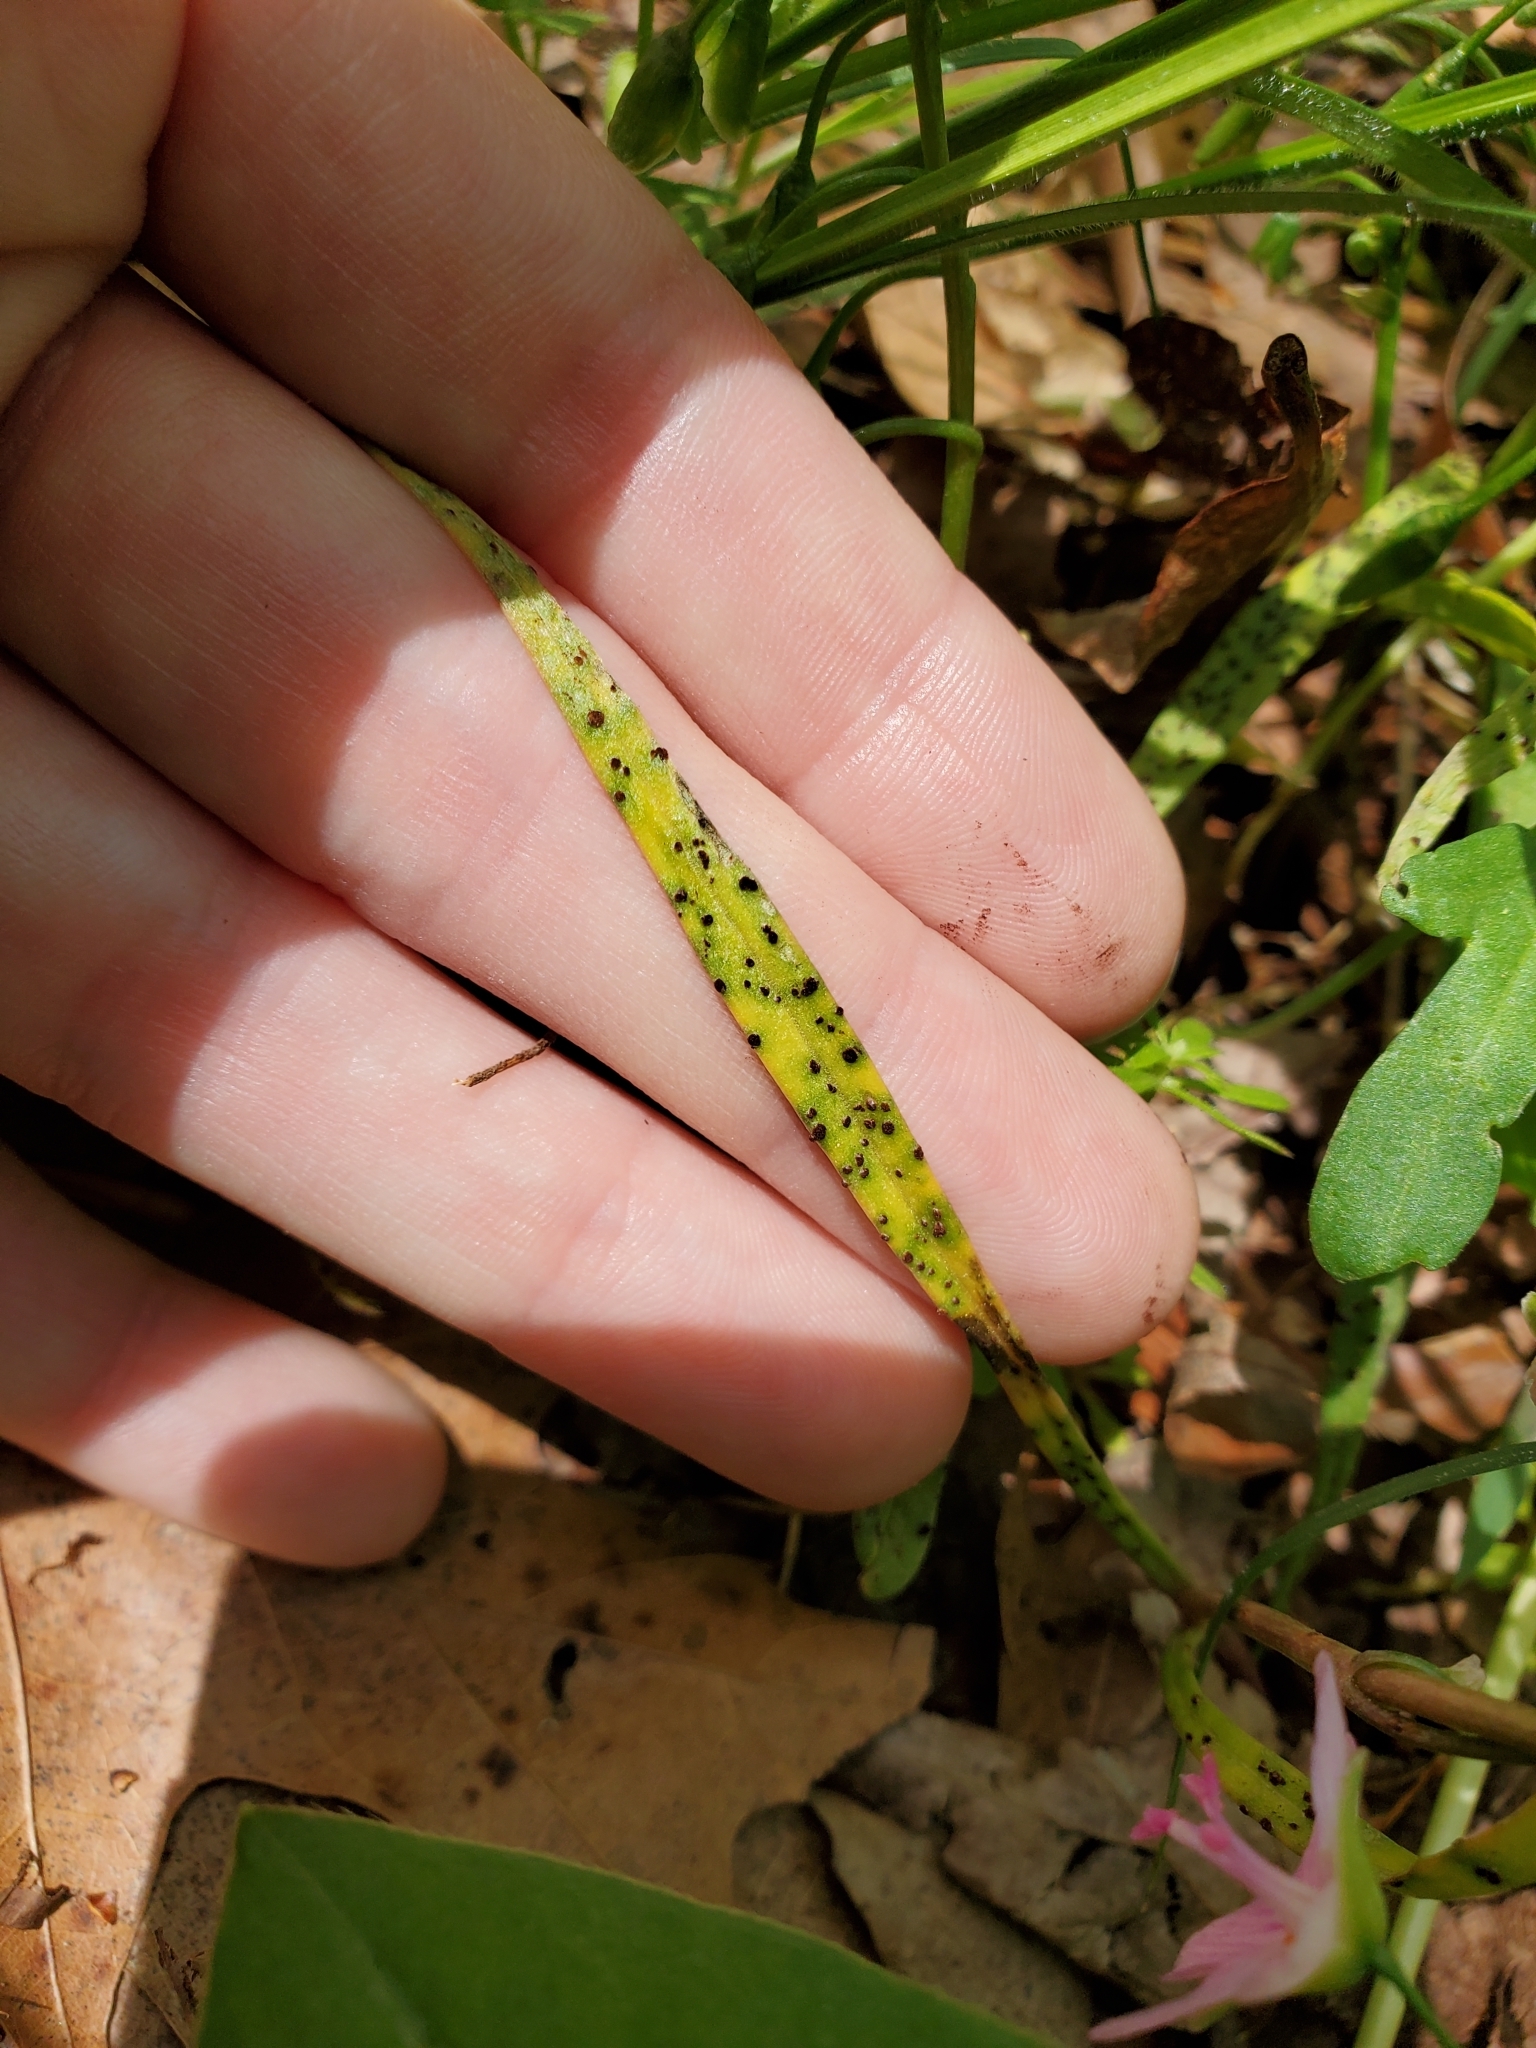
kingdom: Fungi
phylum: Basidiomycota
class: Pucciniomycetes
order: Pucciniales
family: Pucciniaceae
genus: Puccinia
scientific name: Puccinia mariae-wilsoniae
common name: Spring beauty rust
